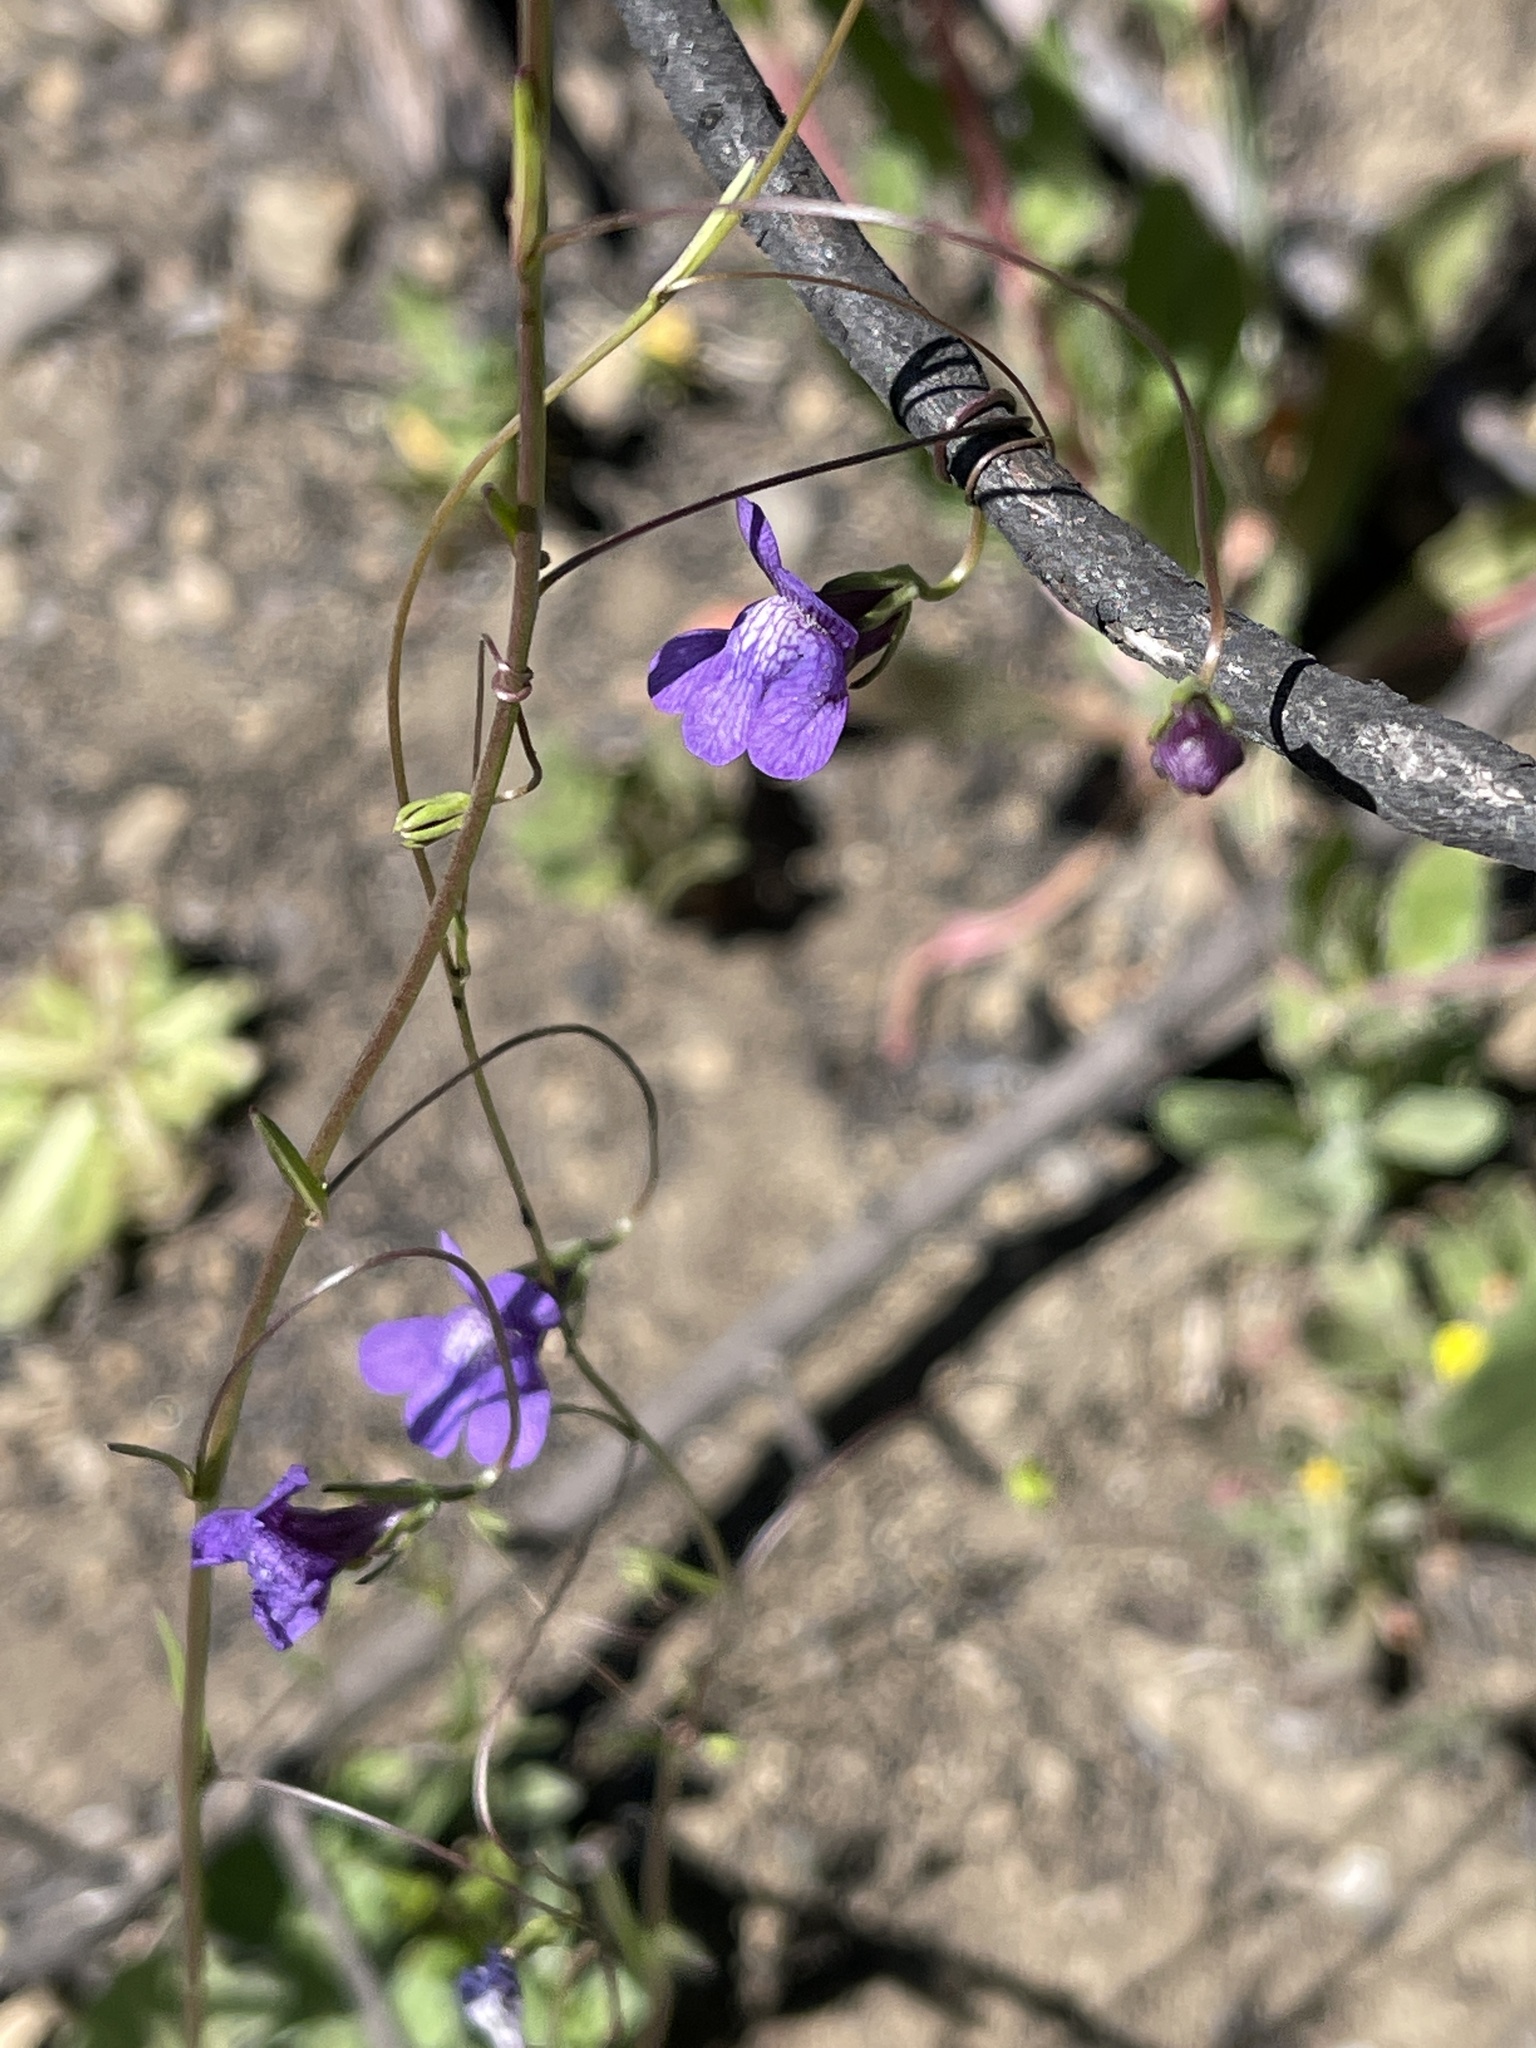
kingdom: Plantae
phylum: Tracheophyta
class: Magnoliopsida
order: Lamiales
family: Plantaginaceae
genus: Neogaerrhinum
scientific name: Neogaerrhinum strictum
